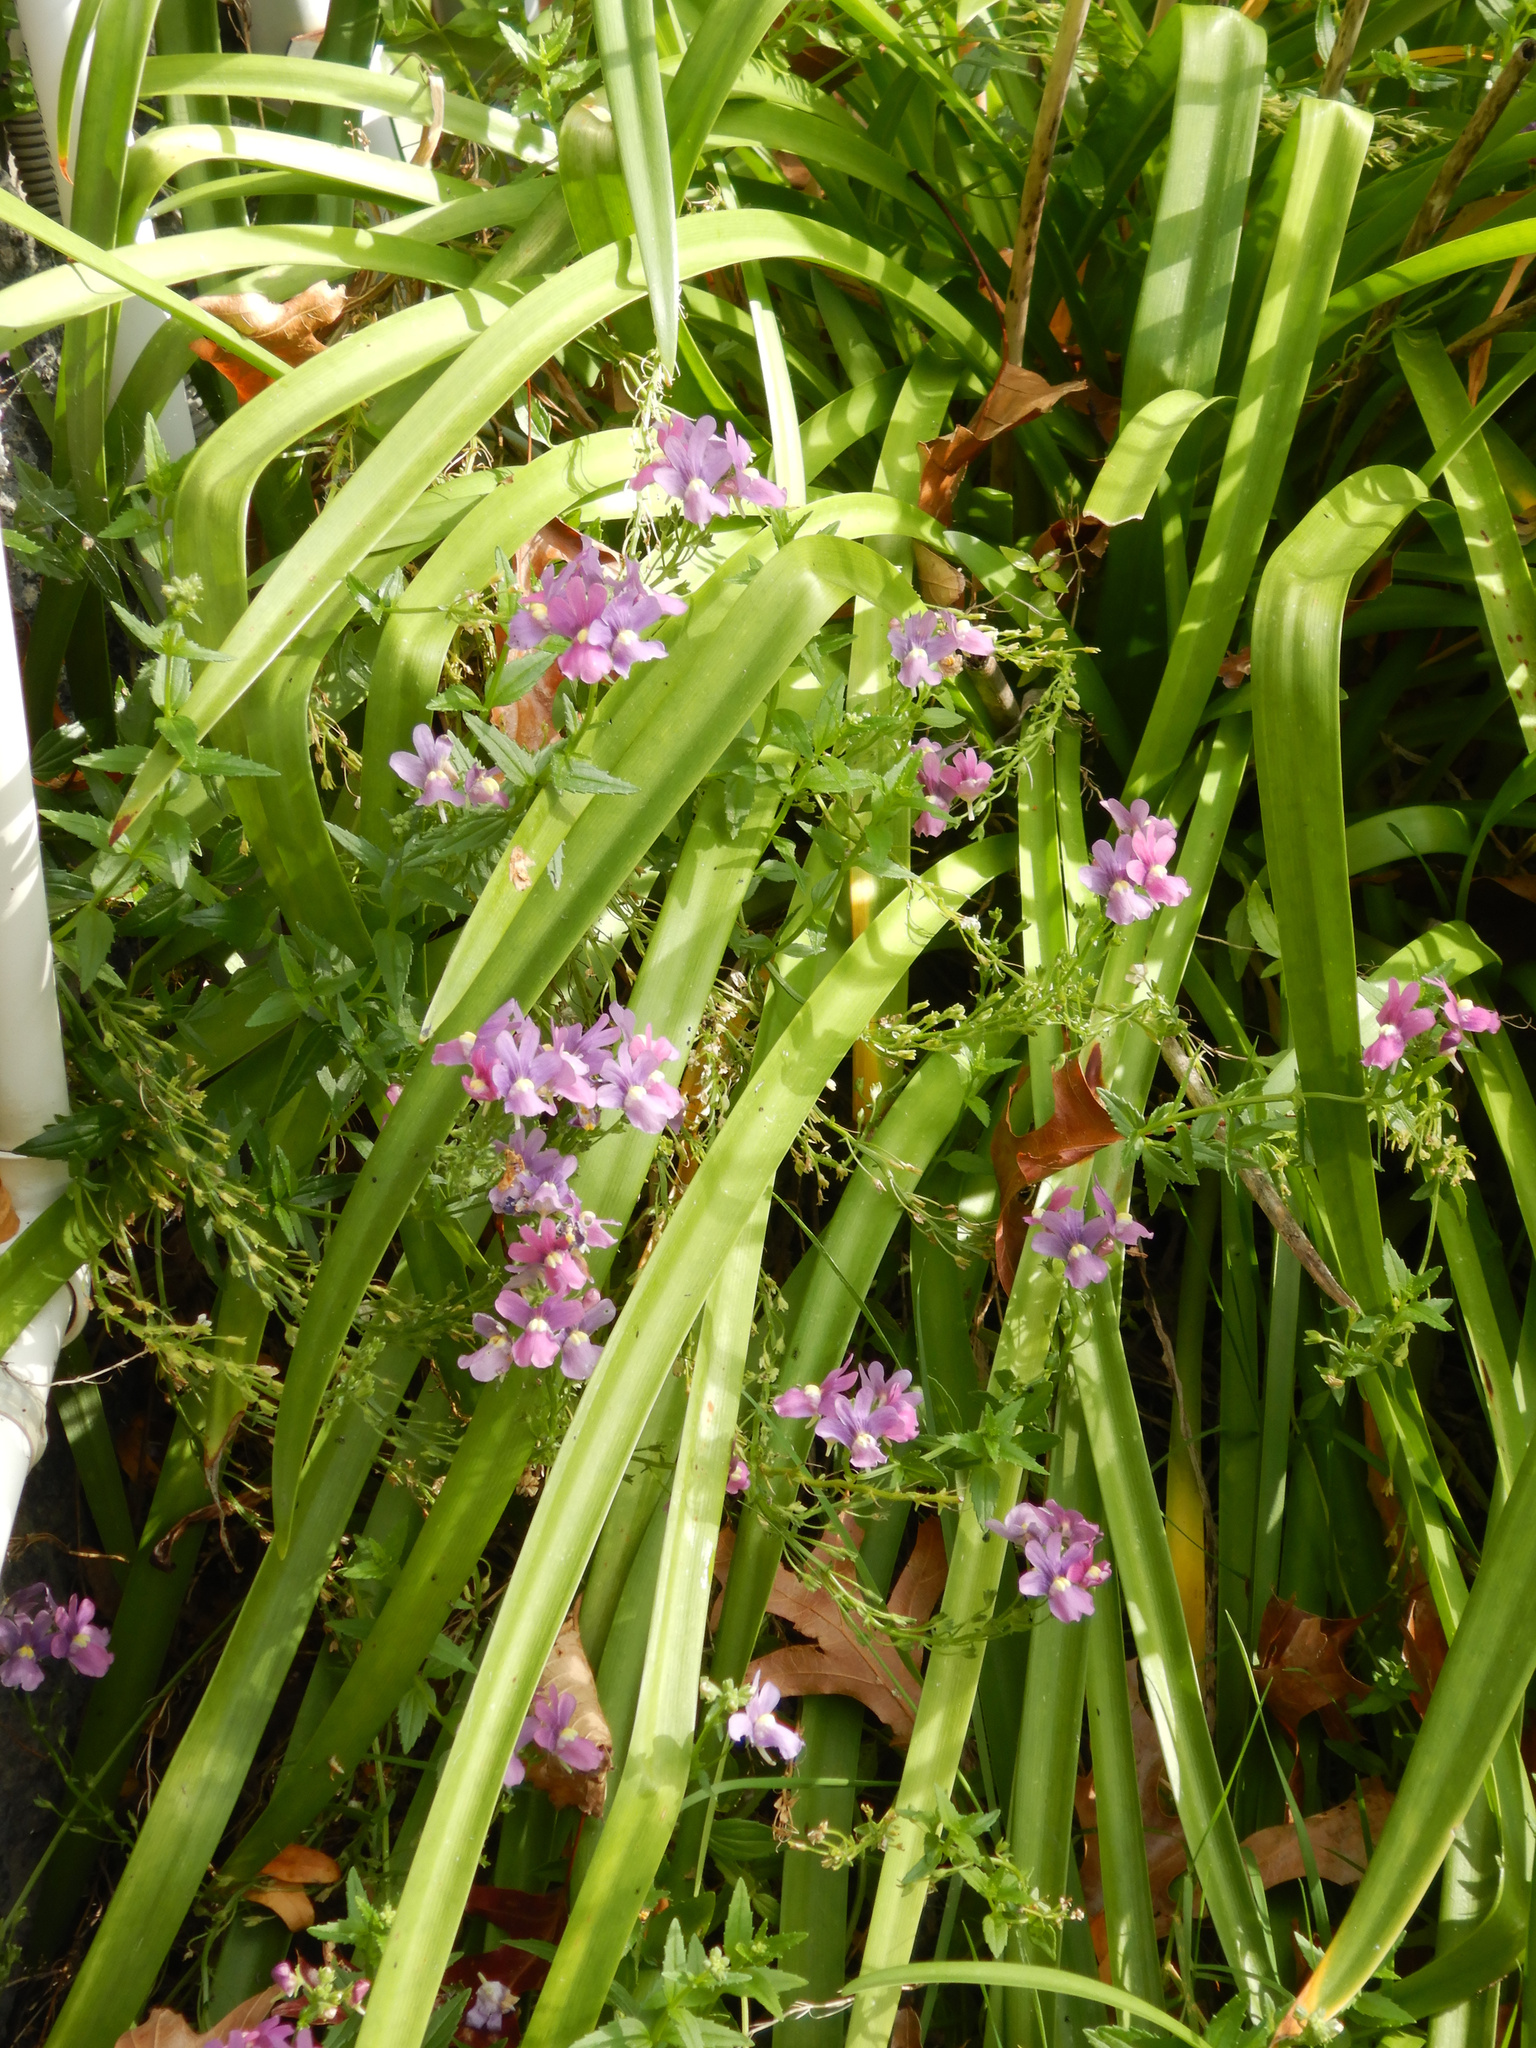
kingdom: Plantae
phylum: Tracheophyta
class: Magnoliopsida
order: Lamiales
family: Scrophulariaceae
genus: Nemesia
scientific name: Nemesia fruticans
